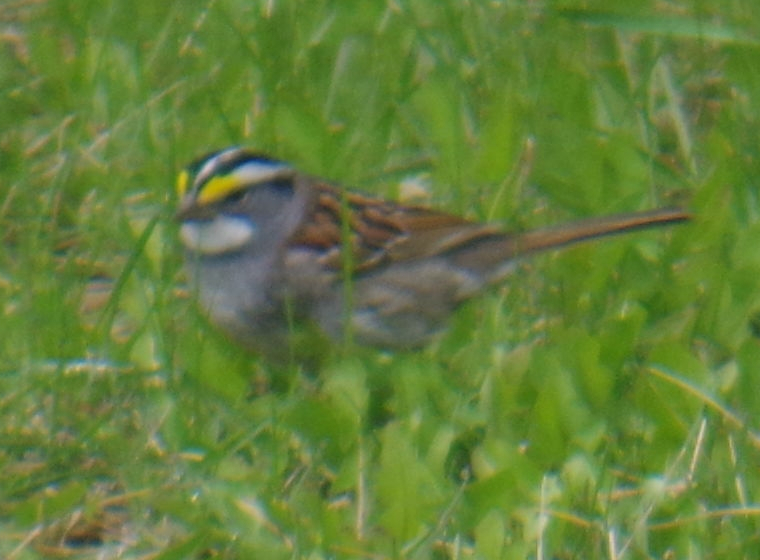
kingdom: Animalia
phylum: Chordata
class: Aves
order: Passeriformes
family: Passerellidae
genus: Zonotrichia
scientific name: Zonotrichia albicollis
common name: White-throated sparrow
